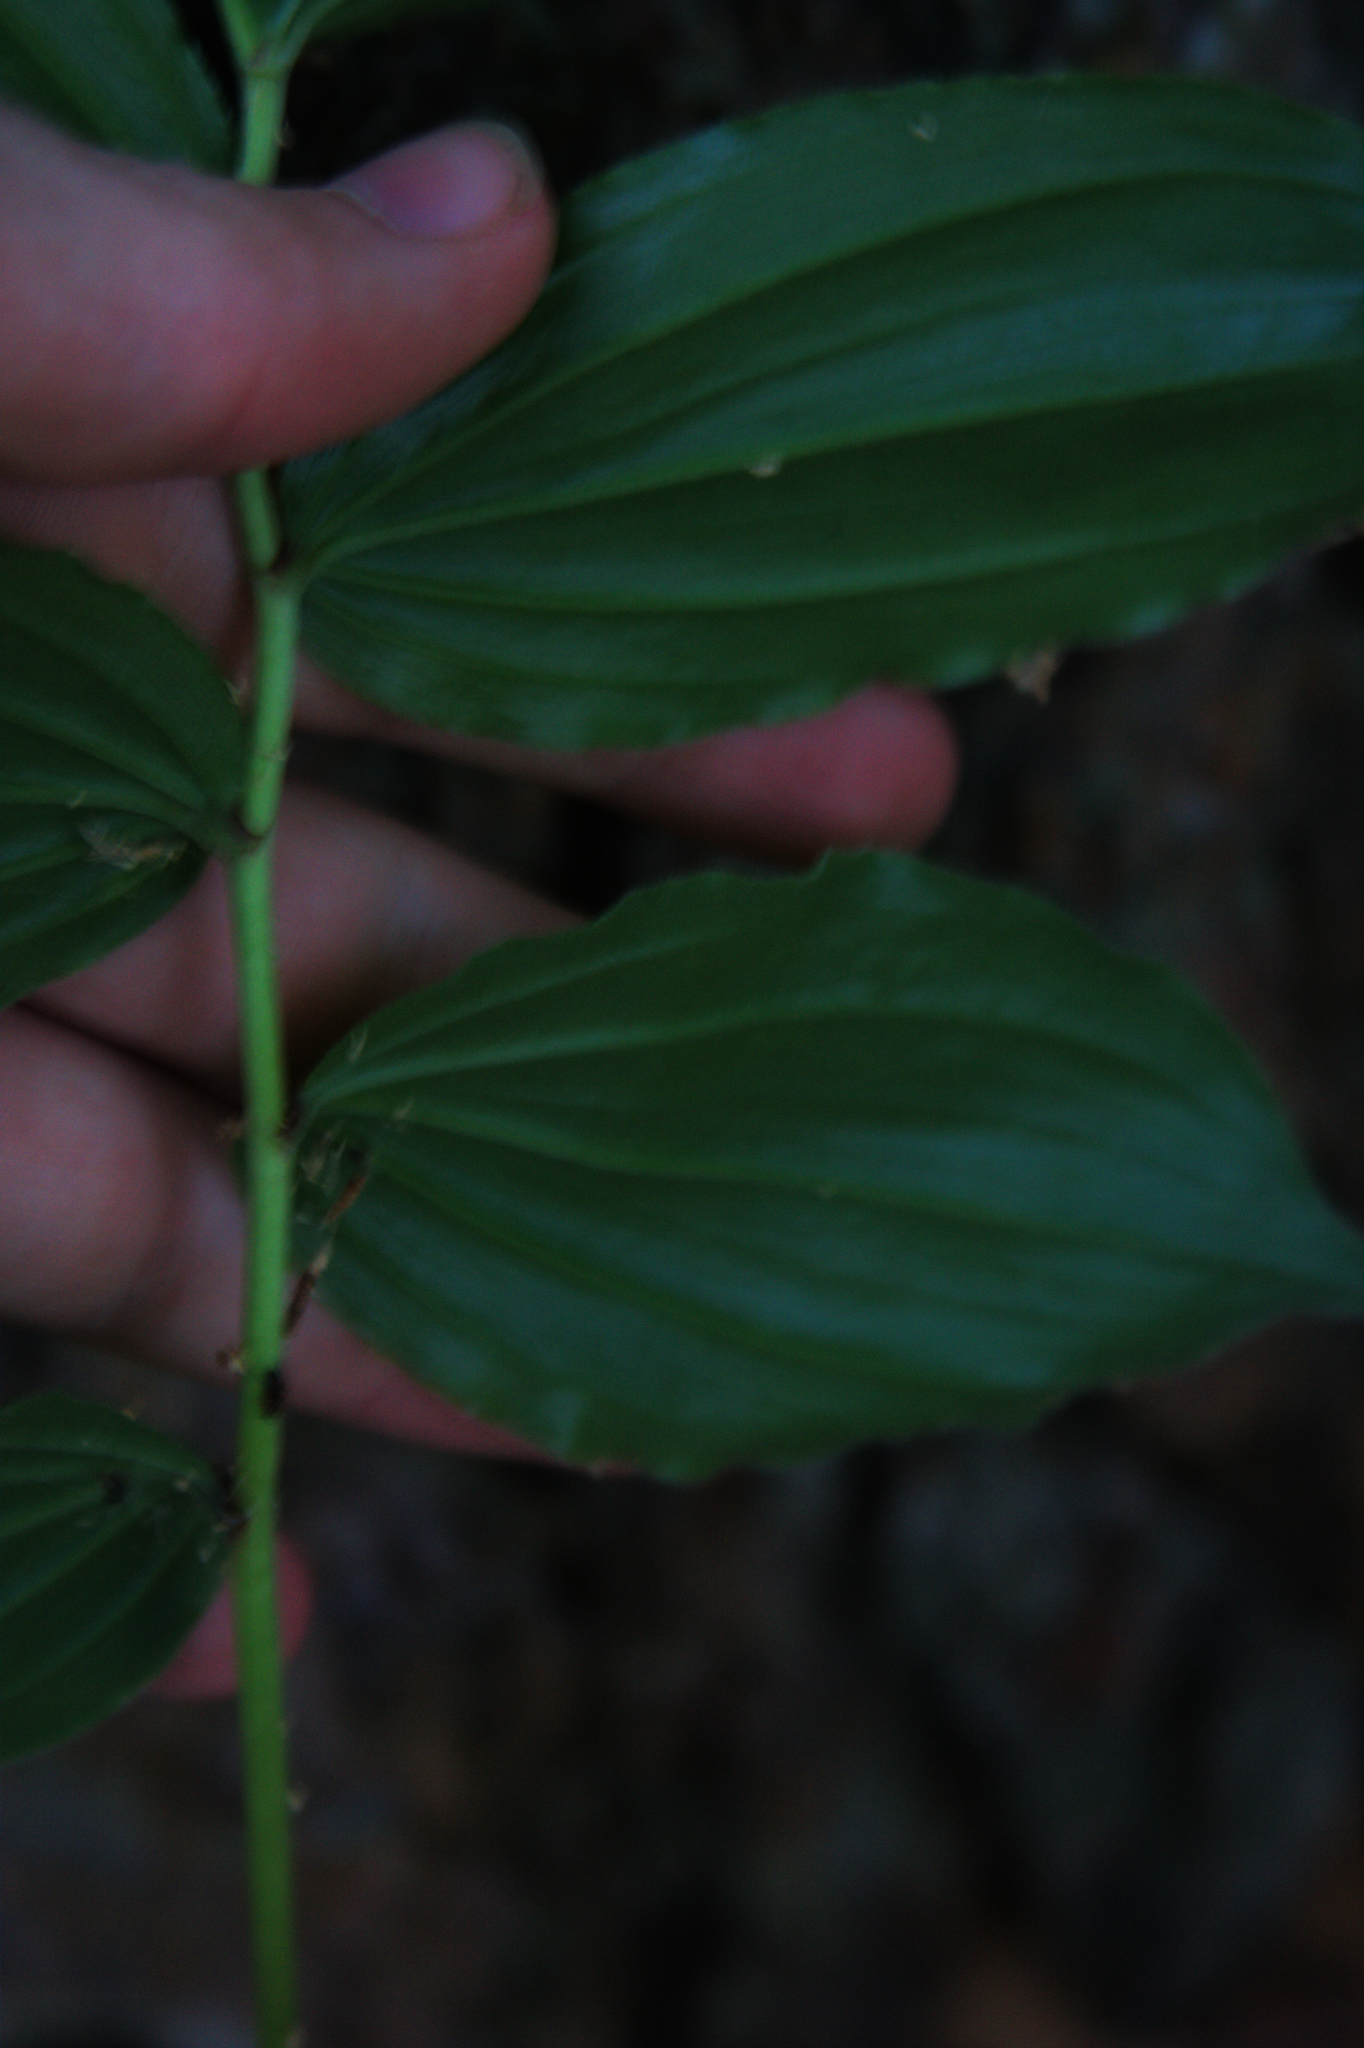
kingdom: Plantae
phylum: Tracheophyta
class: Liliopsida
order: Asparagales
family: Asparagaceae
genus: Maianthemum
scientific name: Maianthemum racemosum
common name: False spikenard
